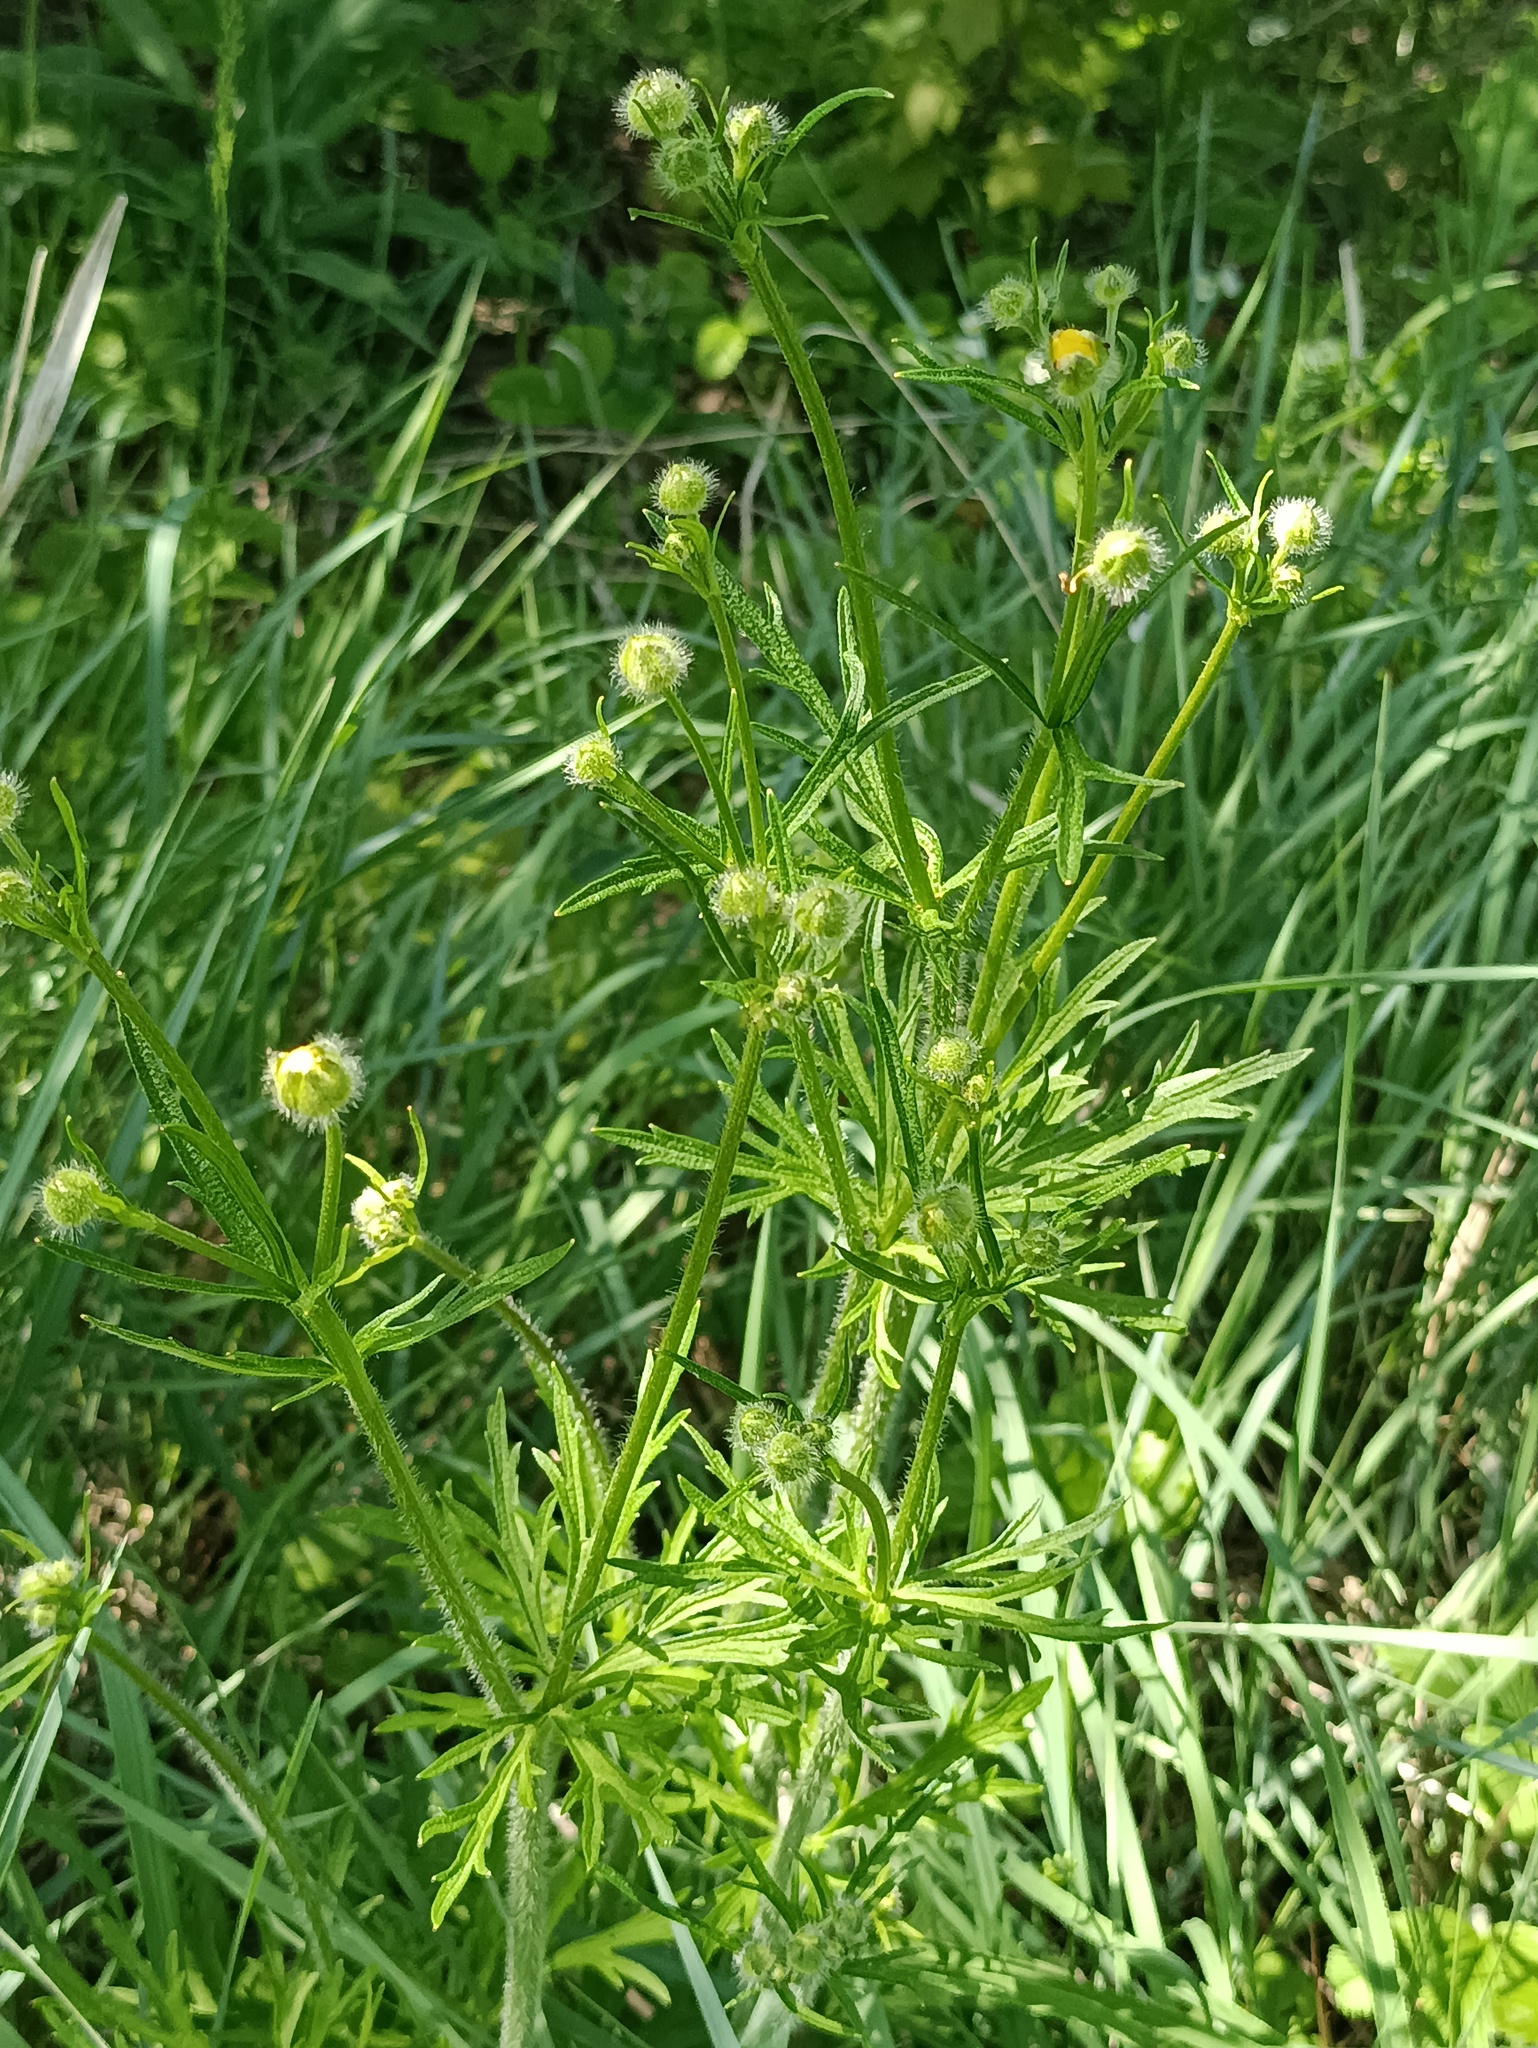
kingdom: Plantae
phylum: Tracheophyta
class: Magnoliopsida
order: Ranunculales
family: Ranunculaceae
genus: Ranunculus
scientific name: Ranunculus polyanthemos
